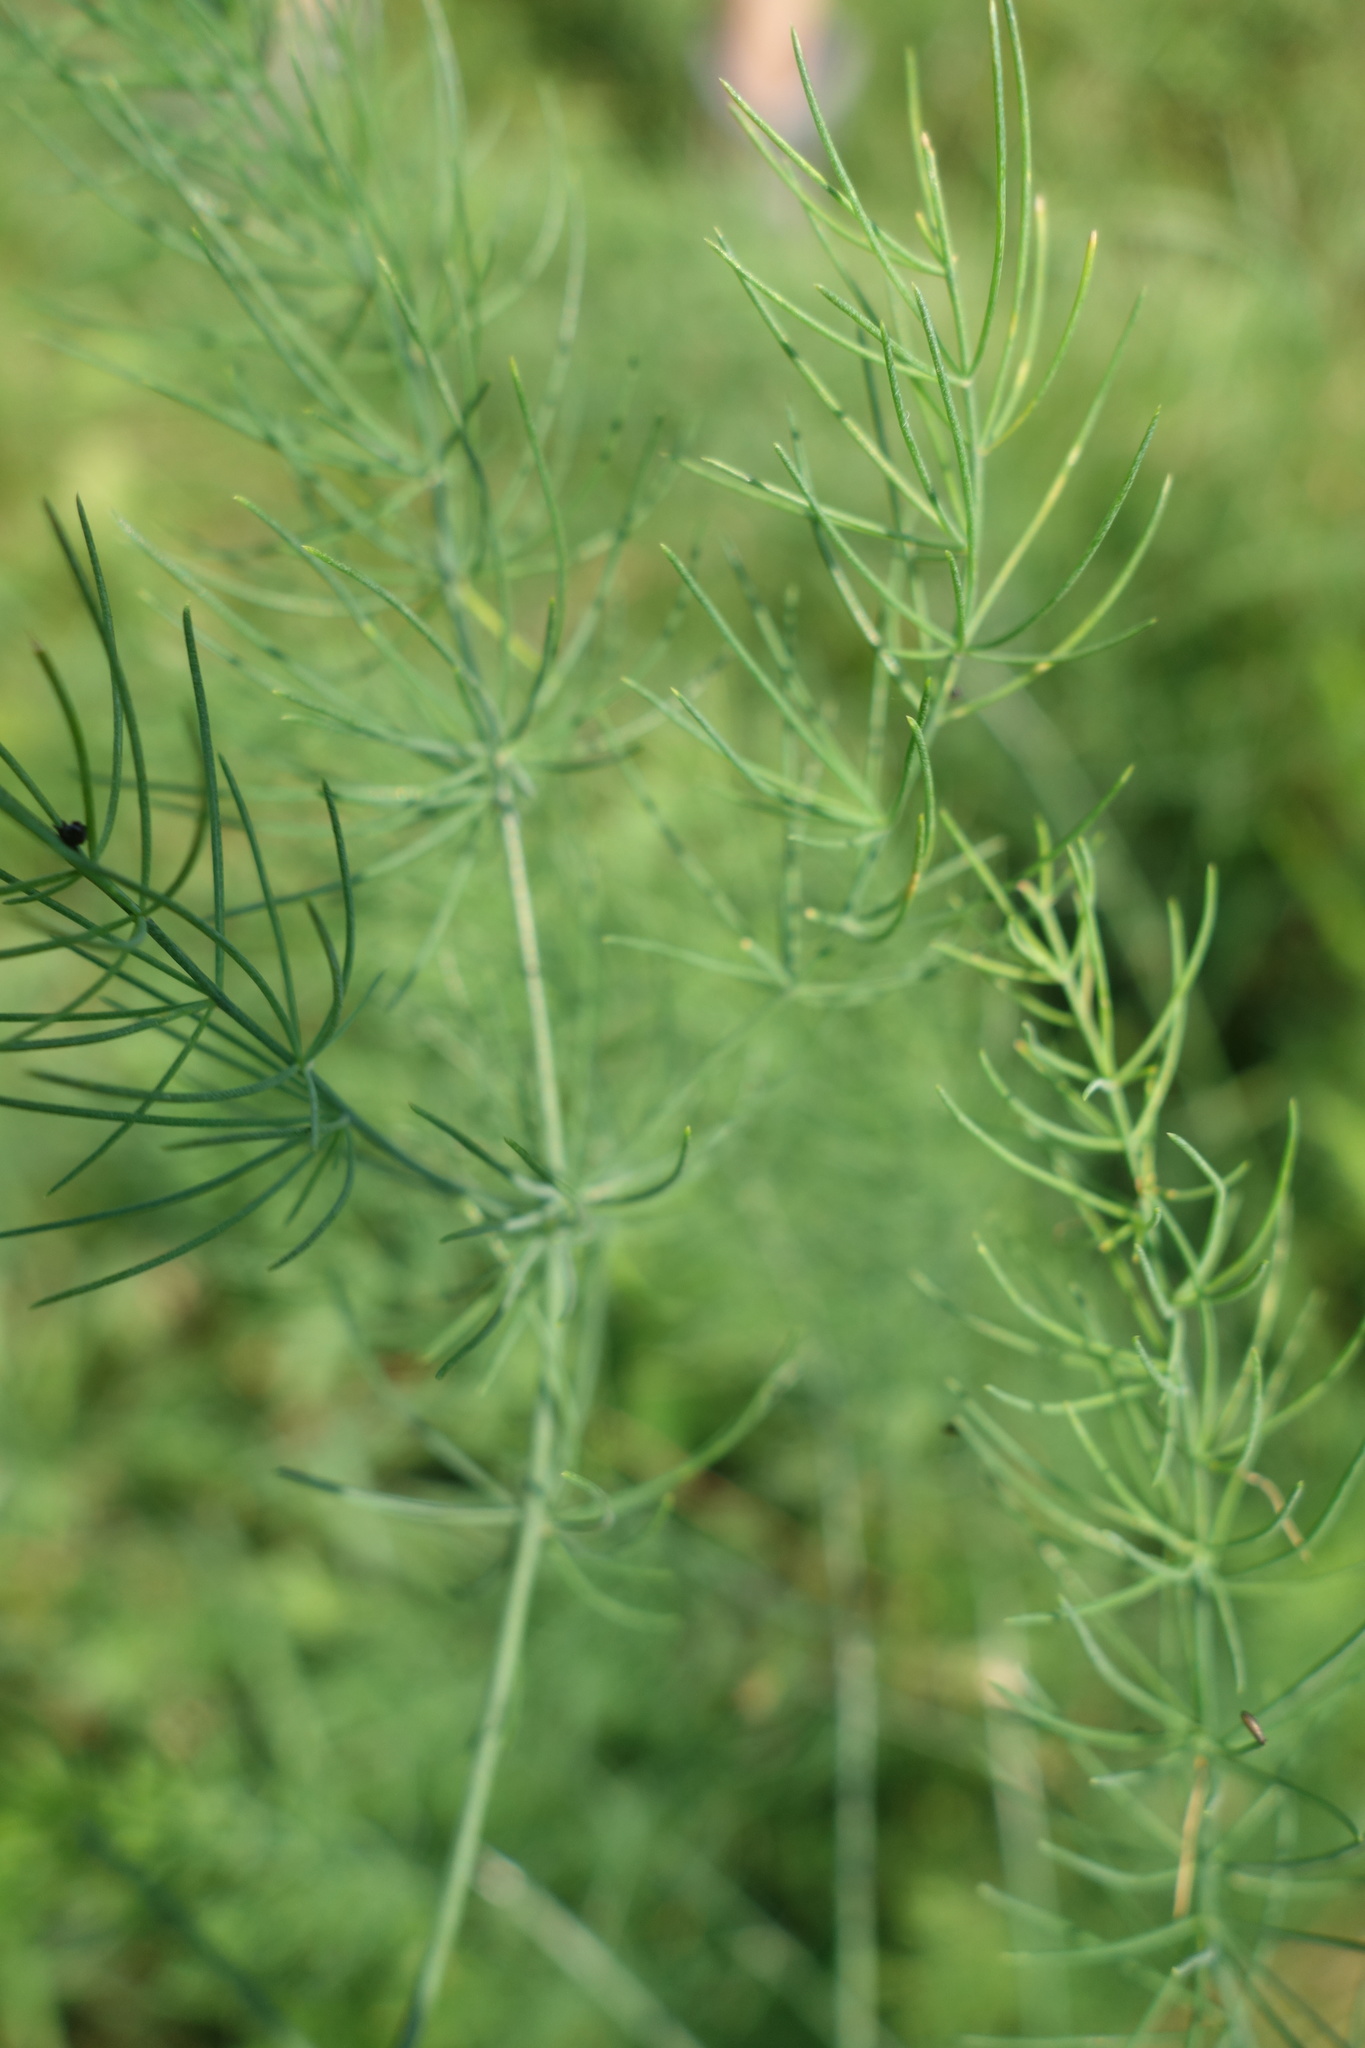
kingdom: Plantae
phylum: Tracheophyta
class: Liliopsida
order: Asparagales
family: Asparagaceae
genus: Asparagus
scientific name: Asparagus officinalis
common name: Garden asparagus
